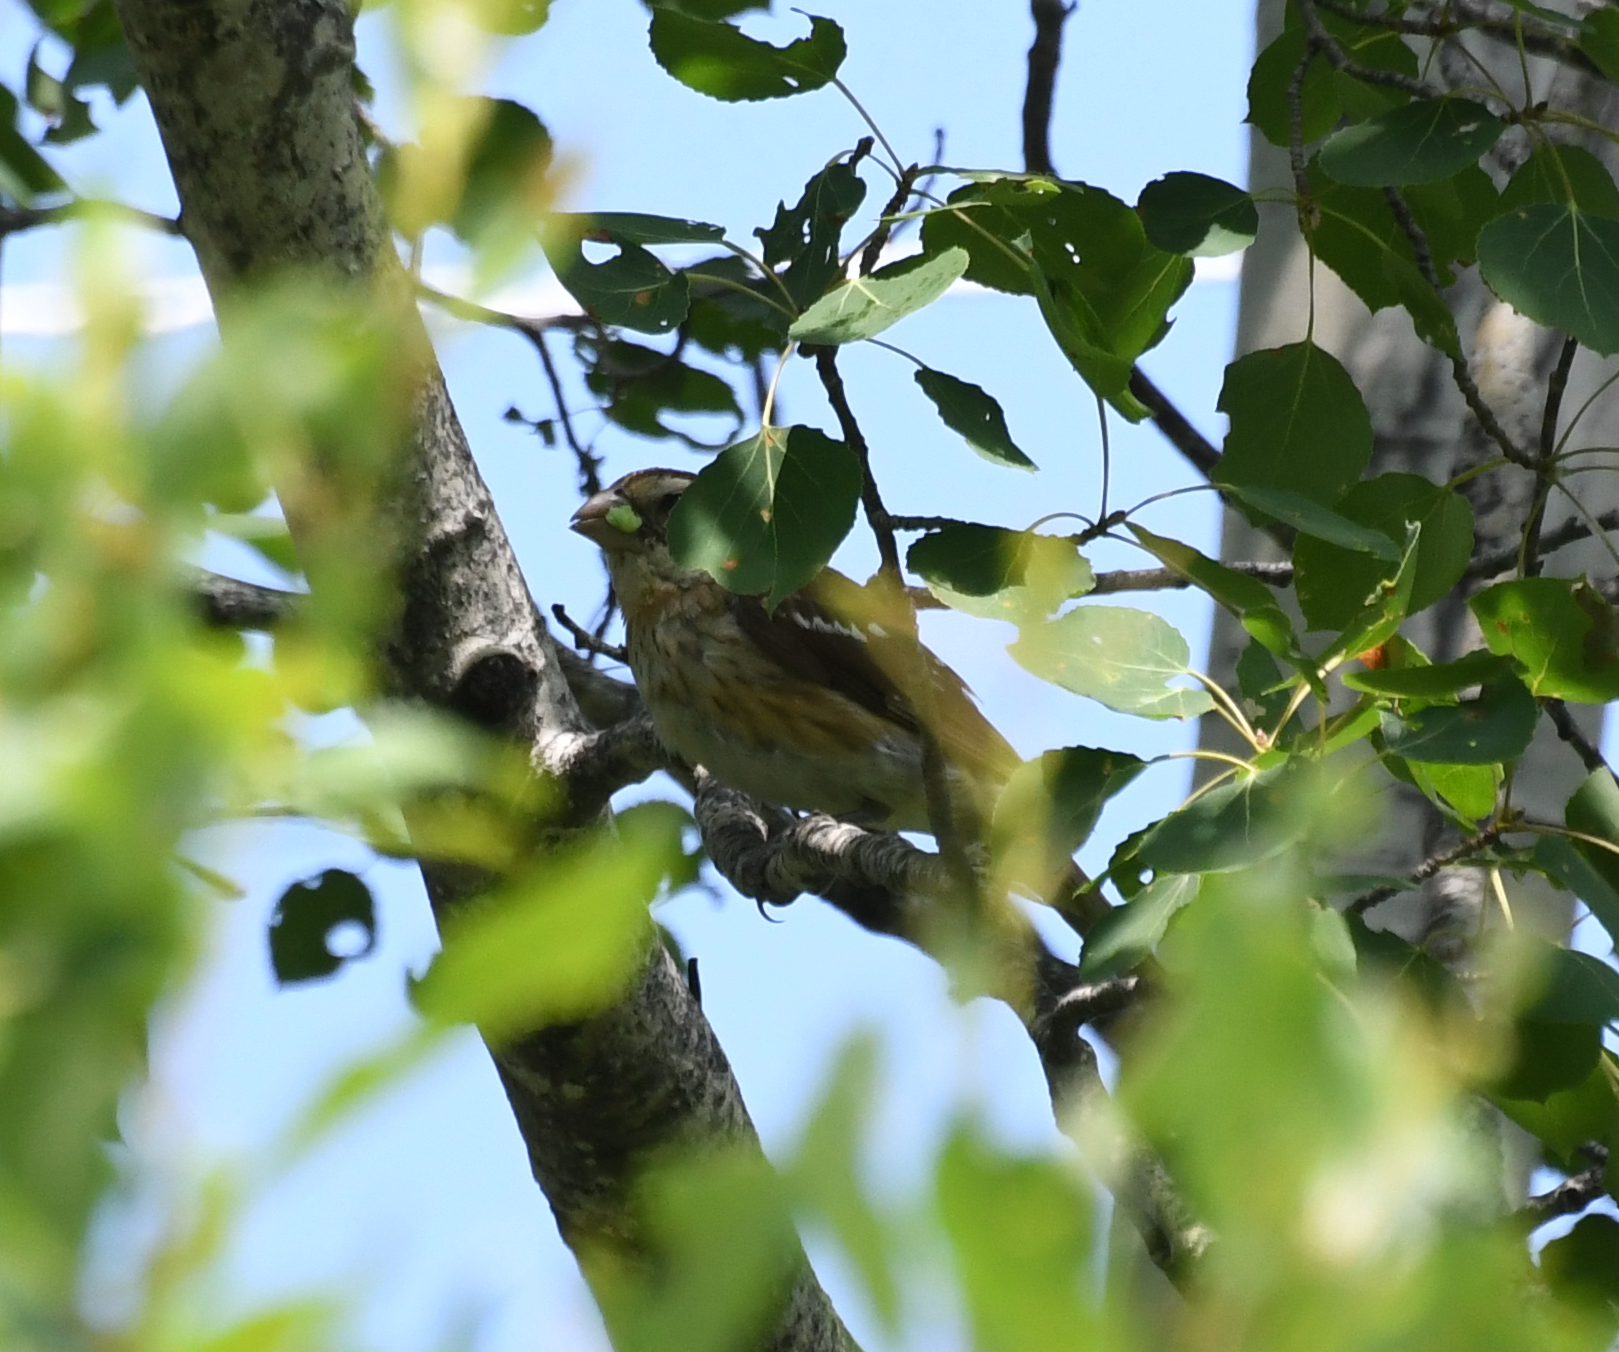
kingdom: Animalia
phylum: Chordata
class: Aves
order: Passeriformes
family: Cardinalidae
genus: Pheucticus
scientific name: Pheucticus ludovicianus
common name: Rose-breasted grosbeak
